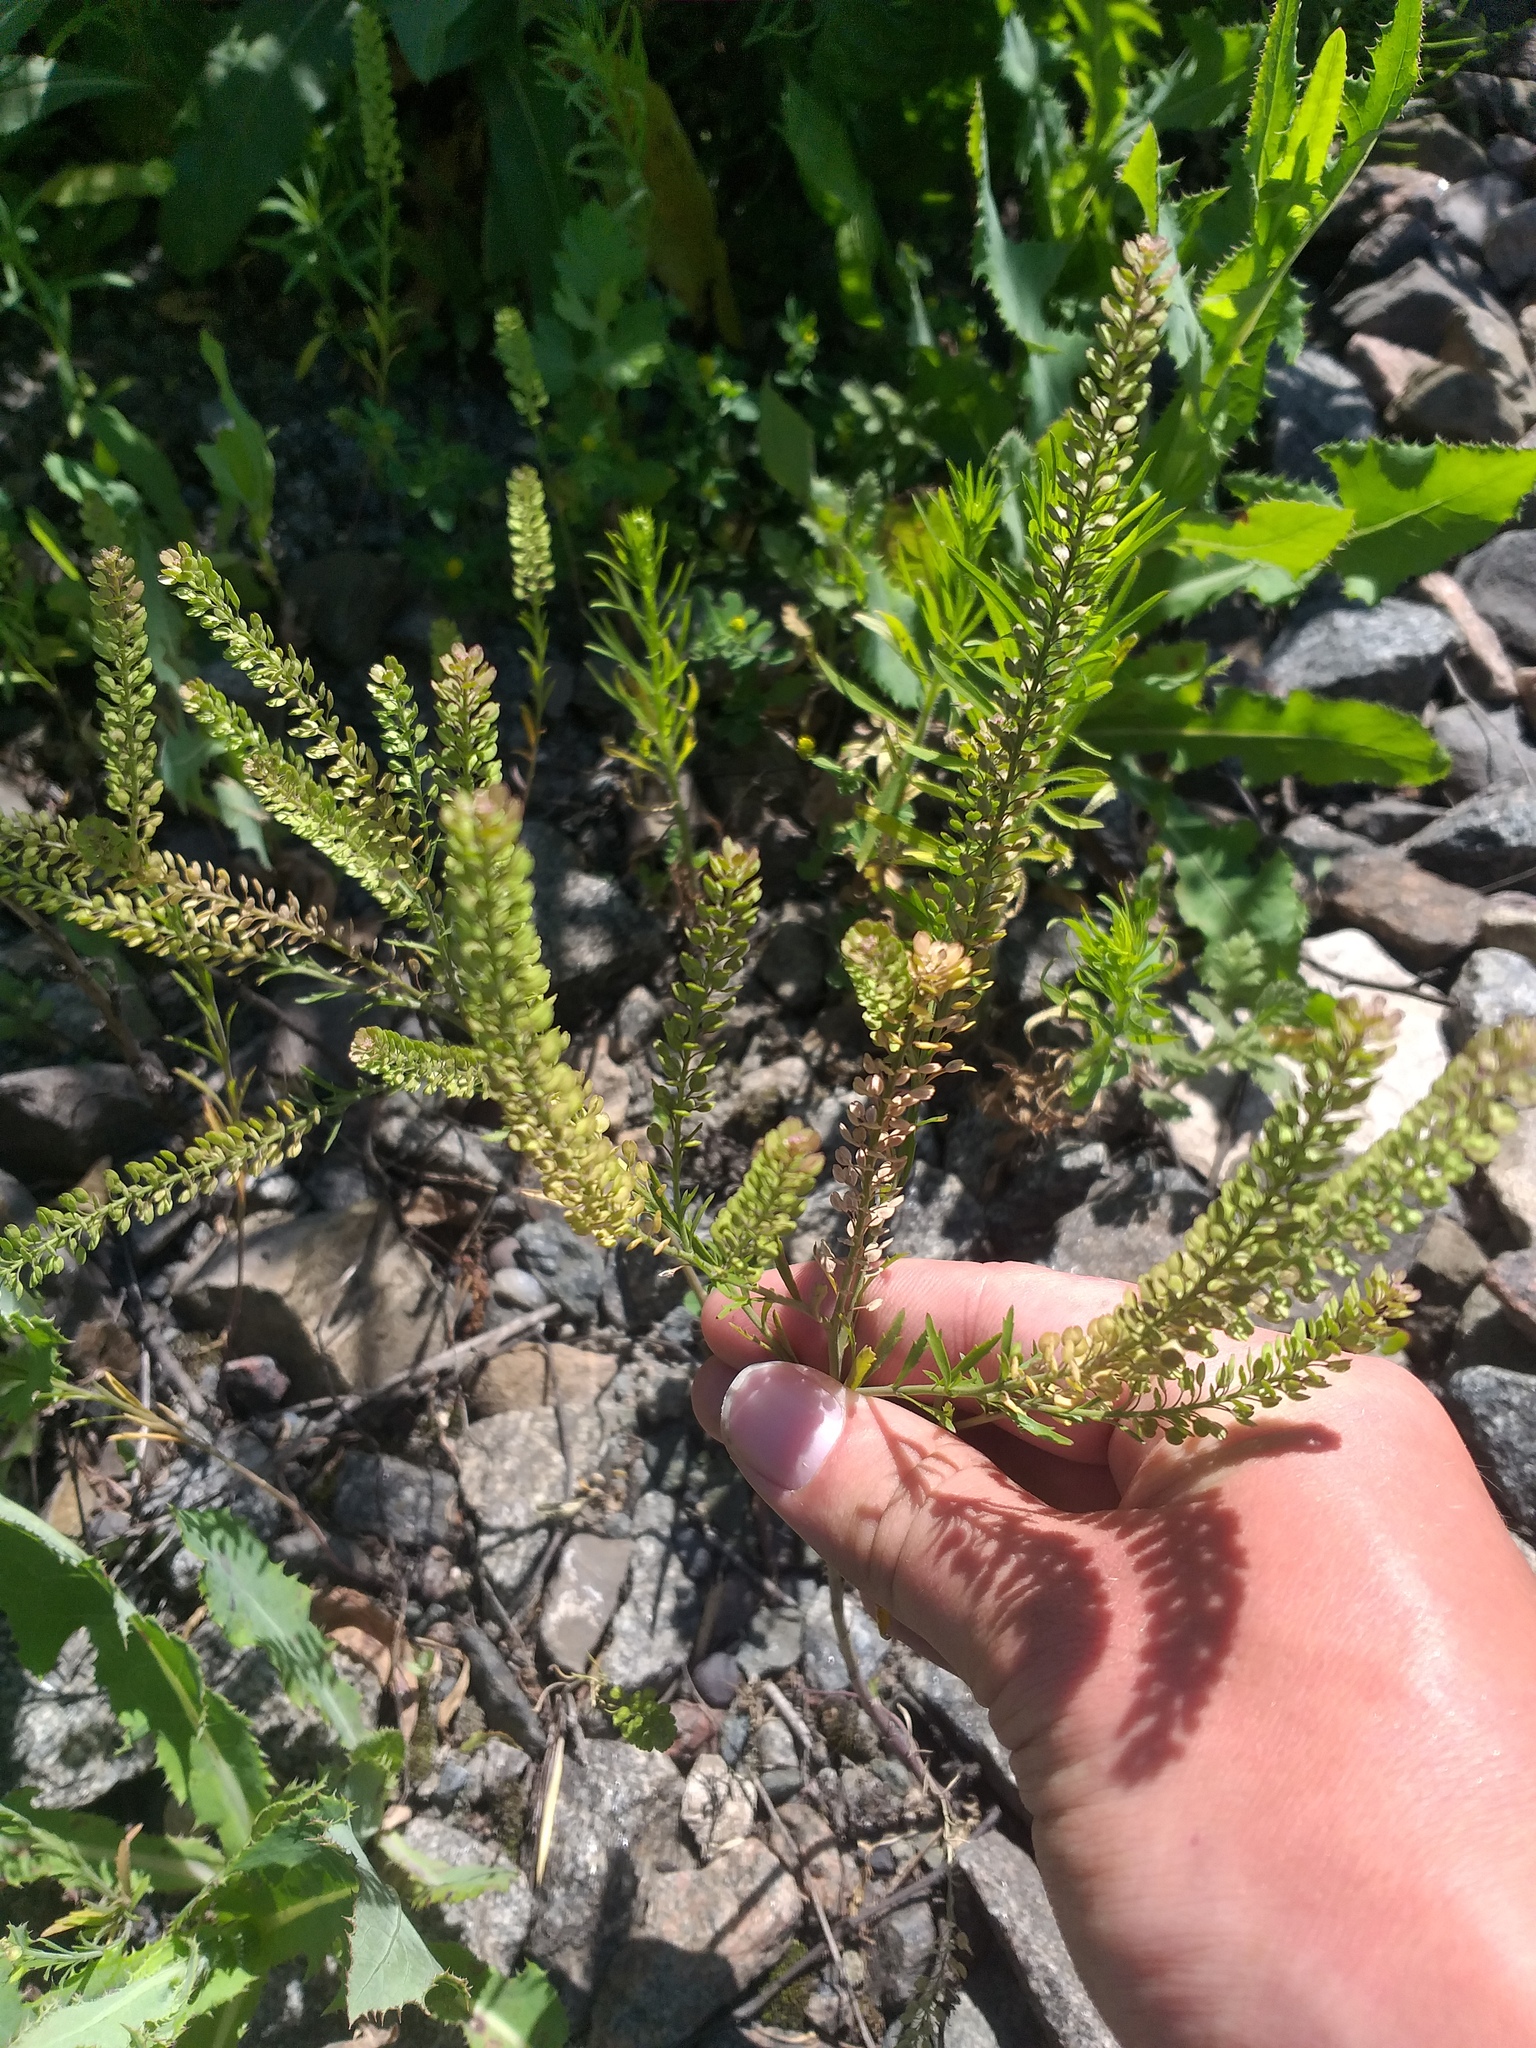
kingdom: Plantae
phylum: Tracheophyta
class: Magnoliopsida
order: Brassicales
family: Brassicaceae
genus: Lepidium
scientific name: Lepidium densiflorum
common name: Miner's pepperwort
